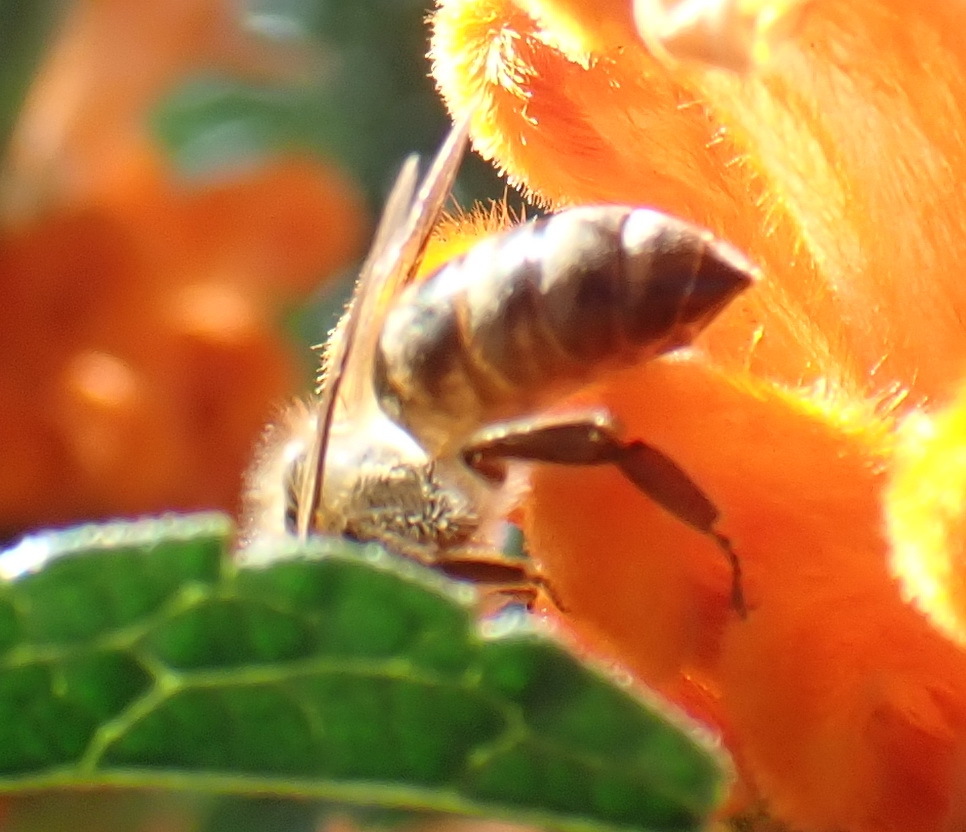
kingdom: Animalia
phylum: Arthropoda
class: Insecta
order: Hymenoptera
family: Apidae
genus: Apis
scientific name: Apis mellifera
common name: Honey bee
